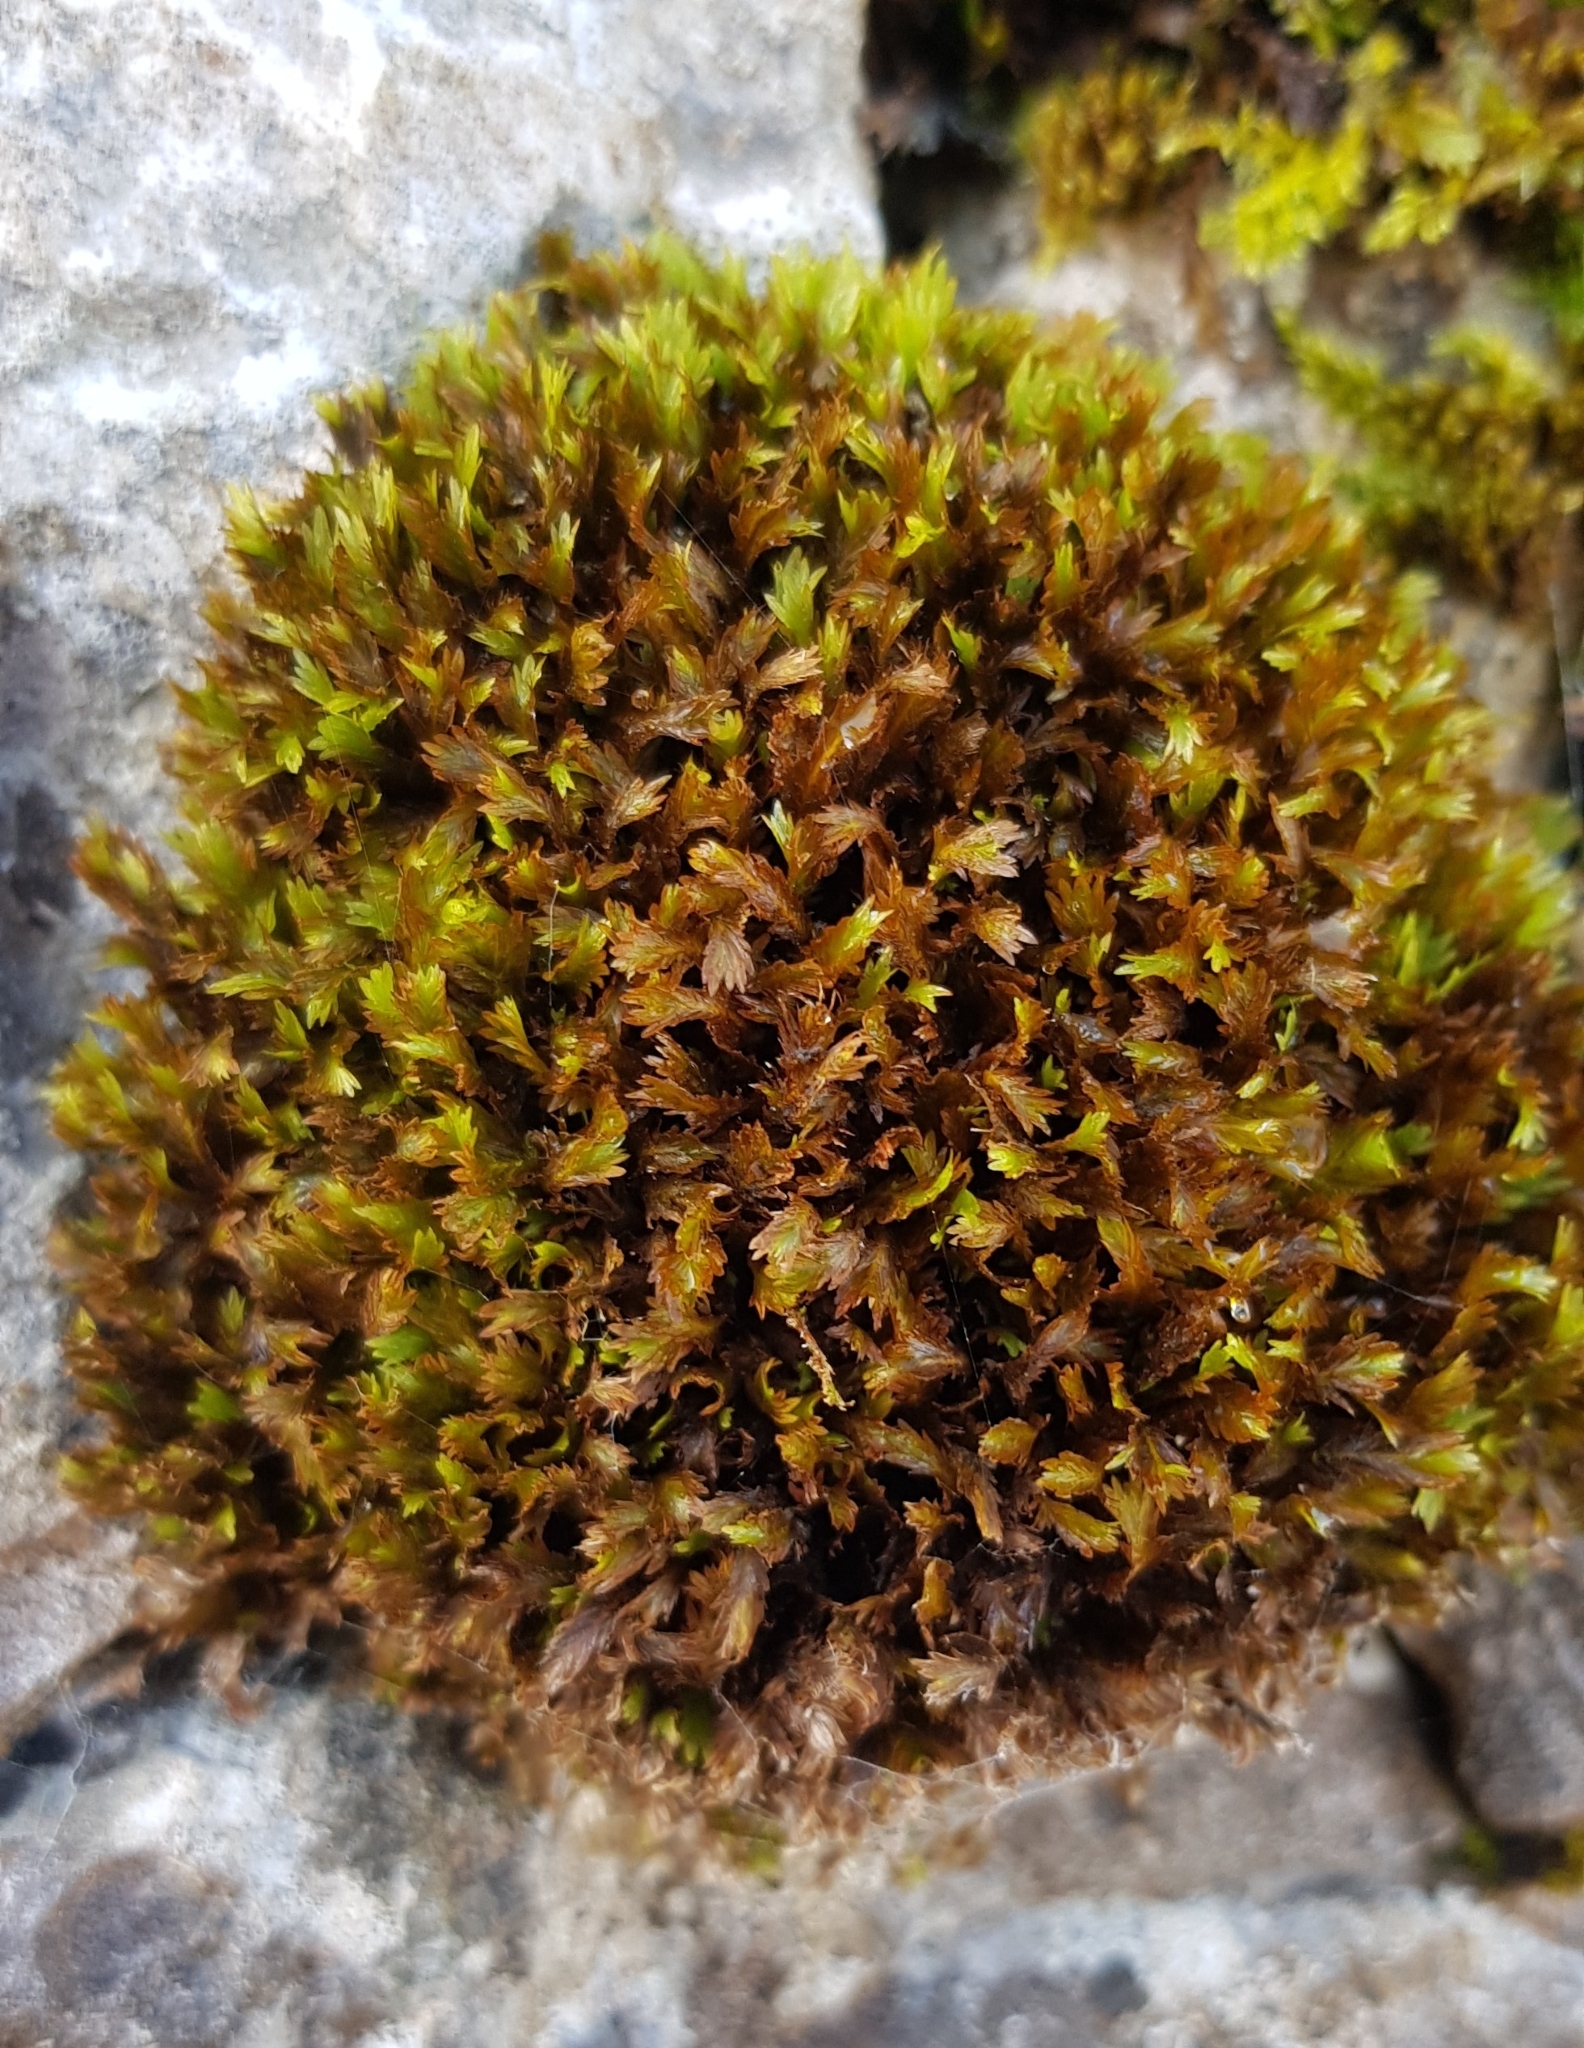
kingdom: Plantae
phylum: Bryophyta
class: Bryopsida
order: Dicranales
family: Fissidentaceae
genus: Fissidens
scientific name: Fissidens dubius
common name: Rock pocket moss
